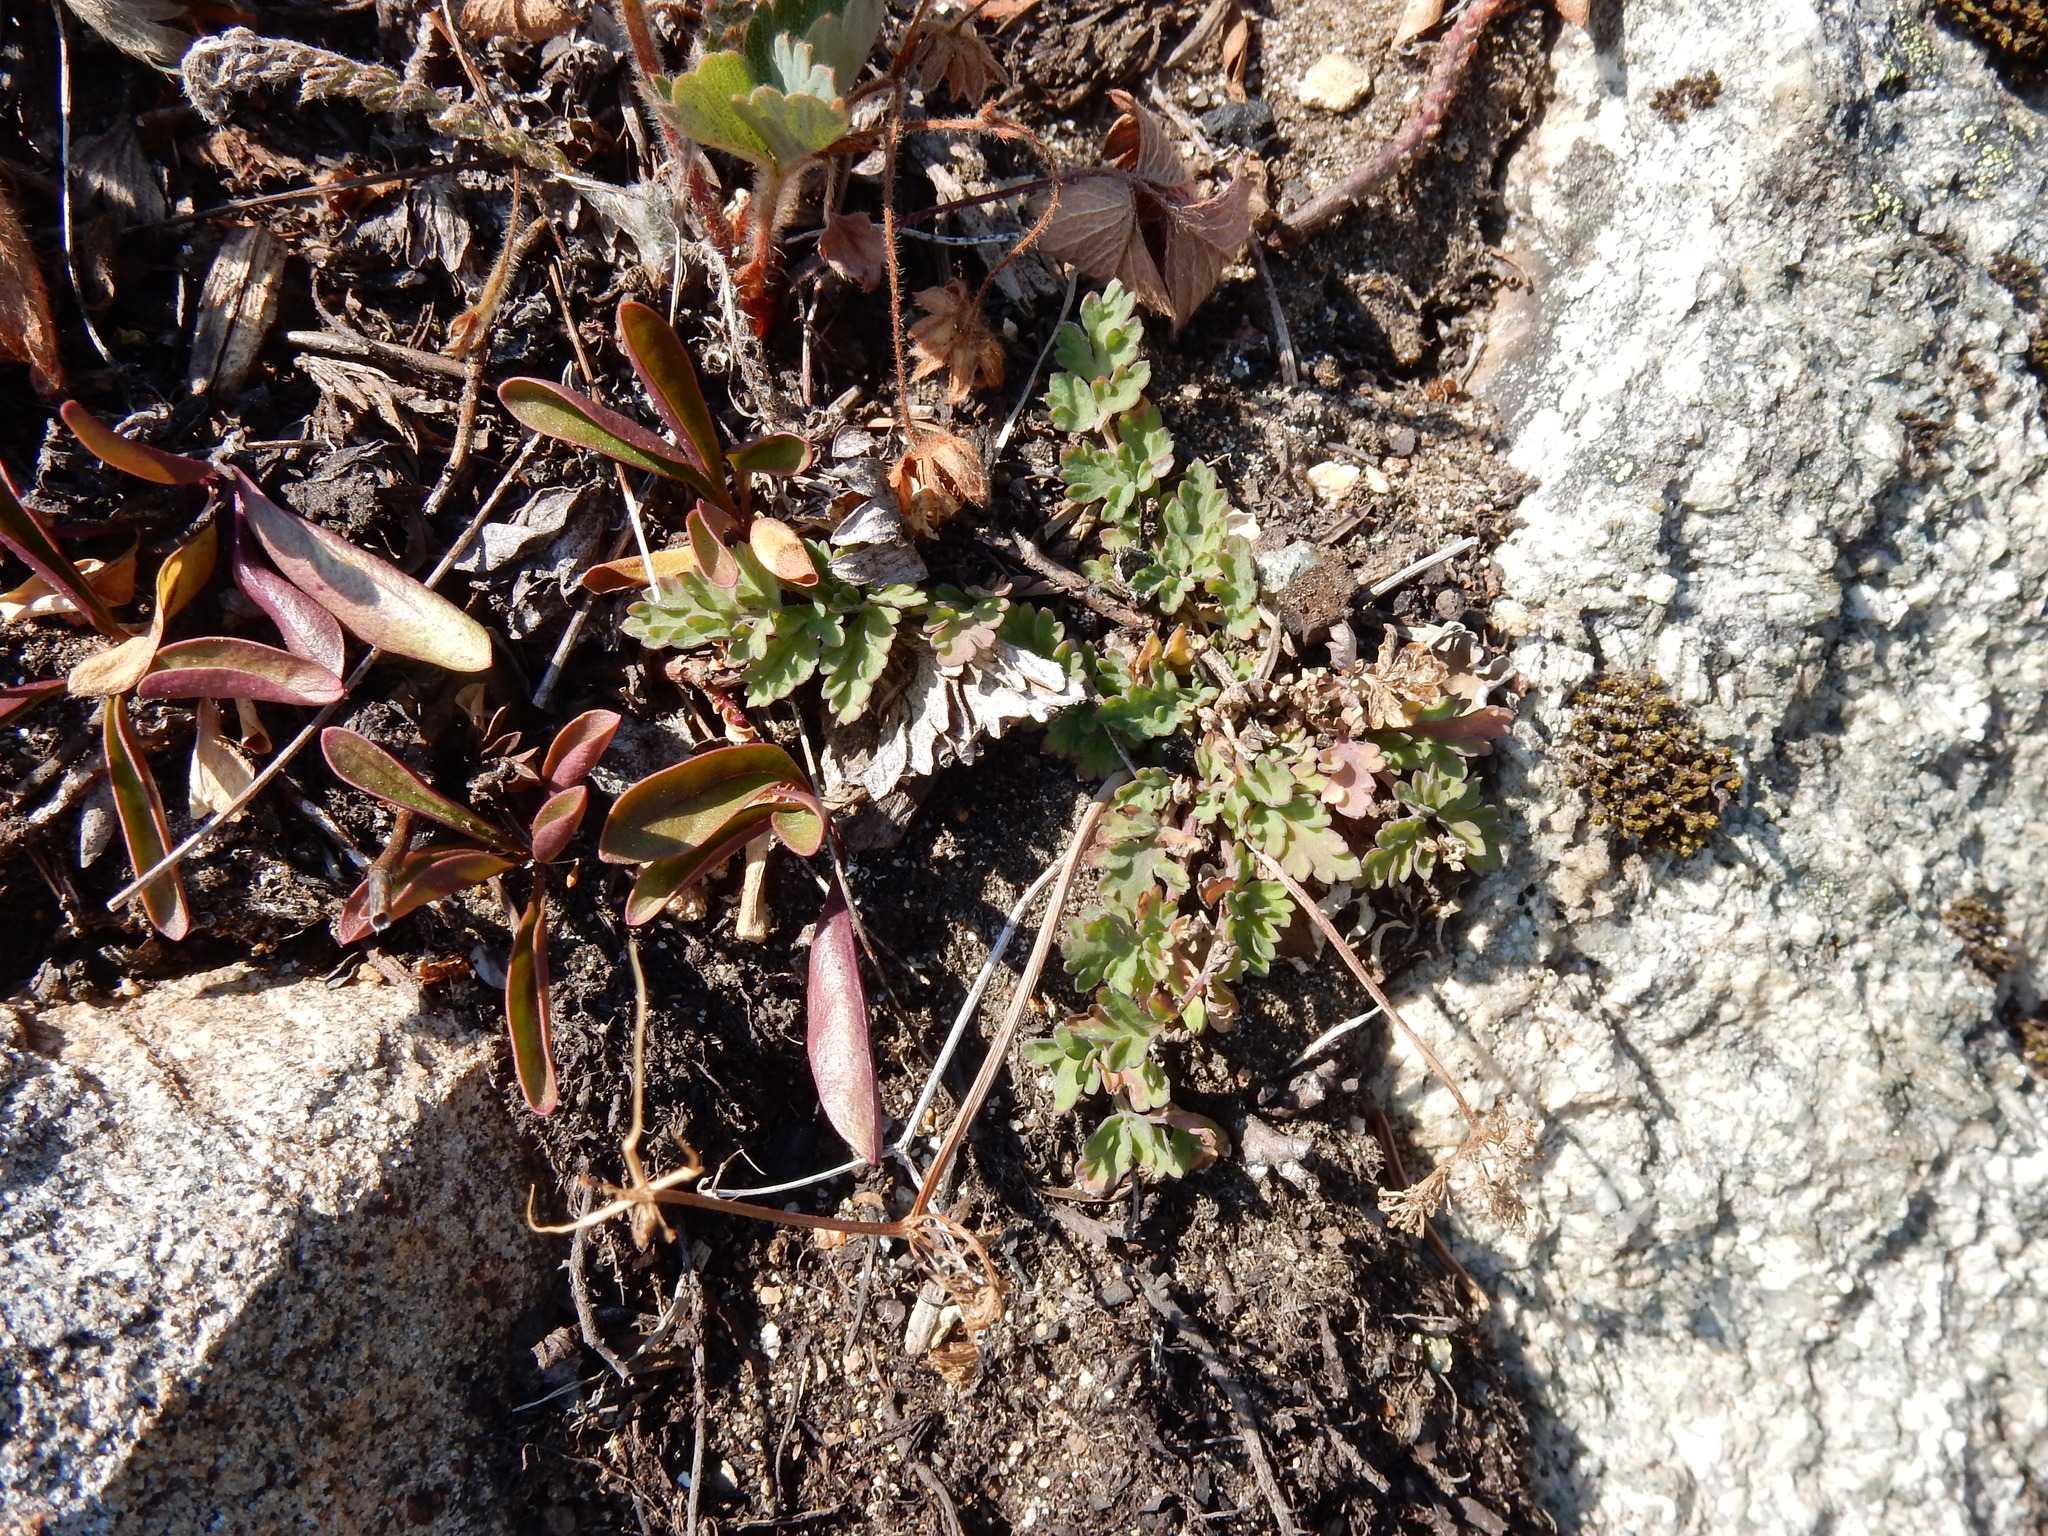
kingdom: Plantae
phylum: Tracheophyta
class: Magnoliopsida
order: Apiales
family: Apiaceae
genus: Lomatium
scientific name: Lomatium martindalei
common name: Cascade desert-parsley
